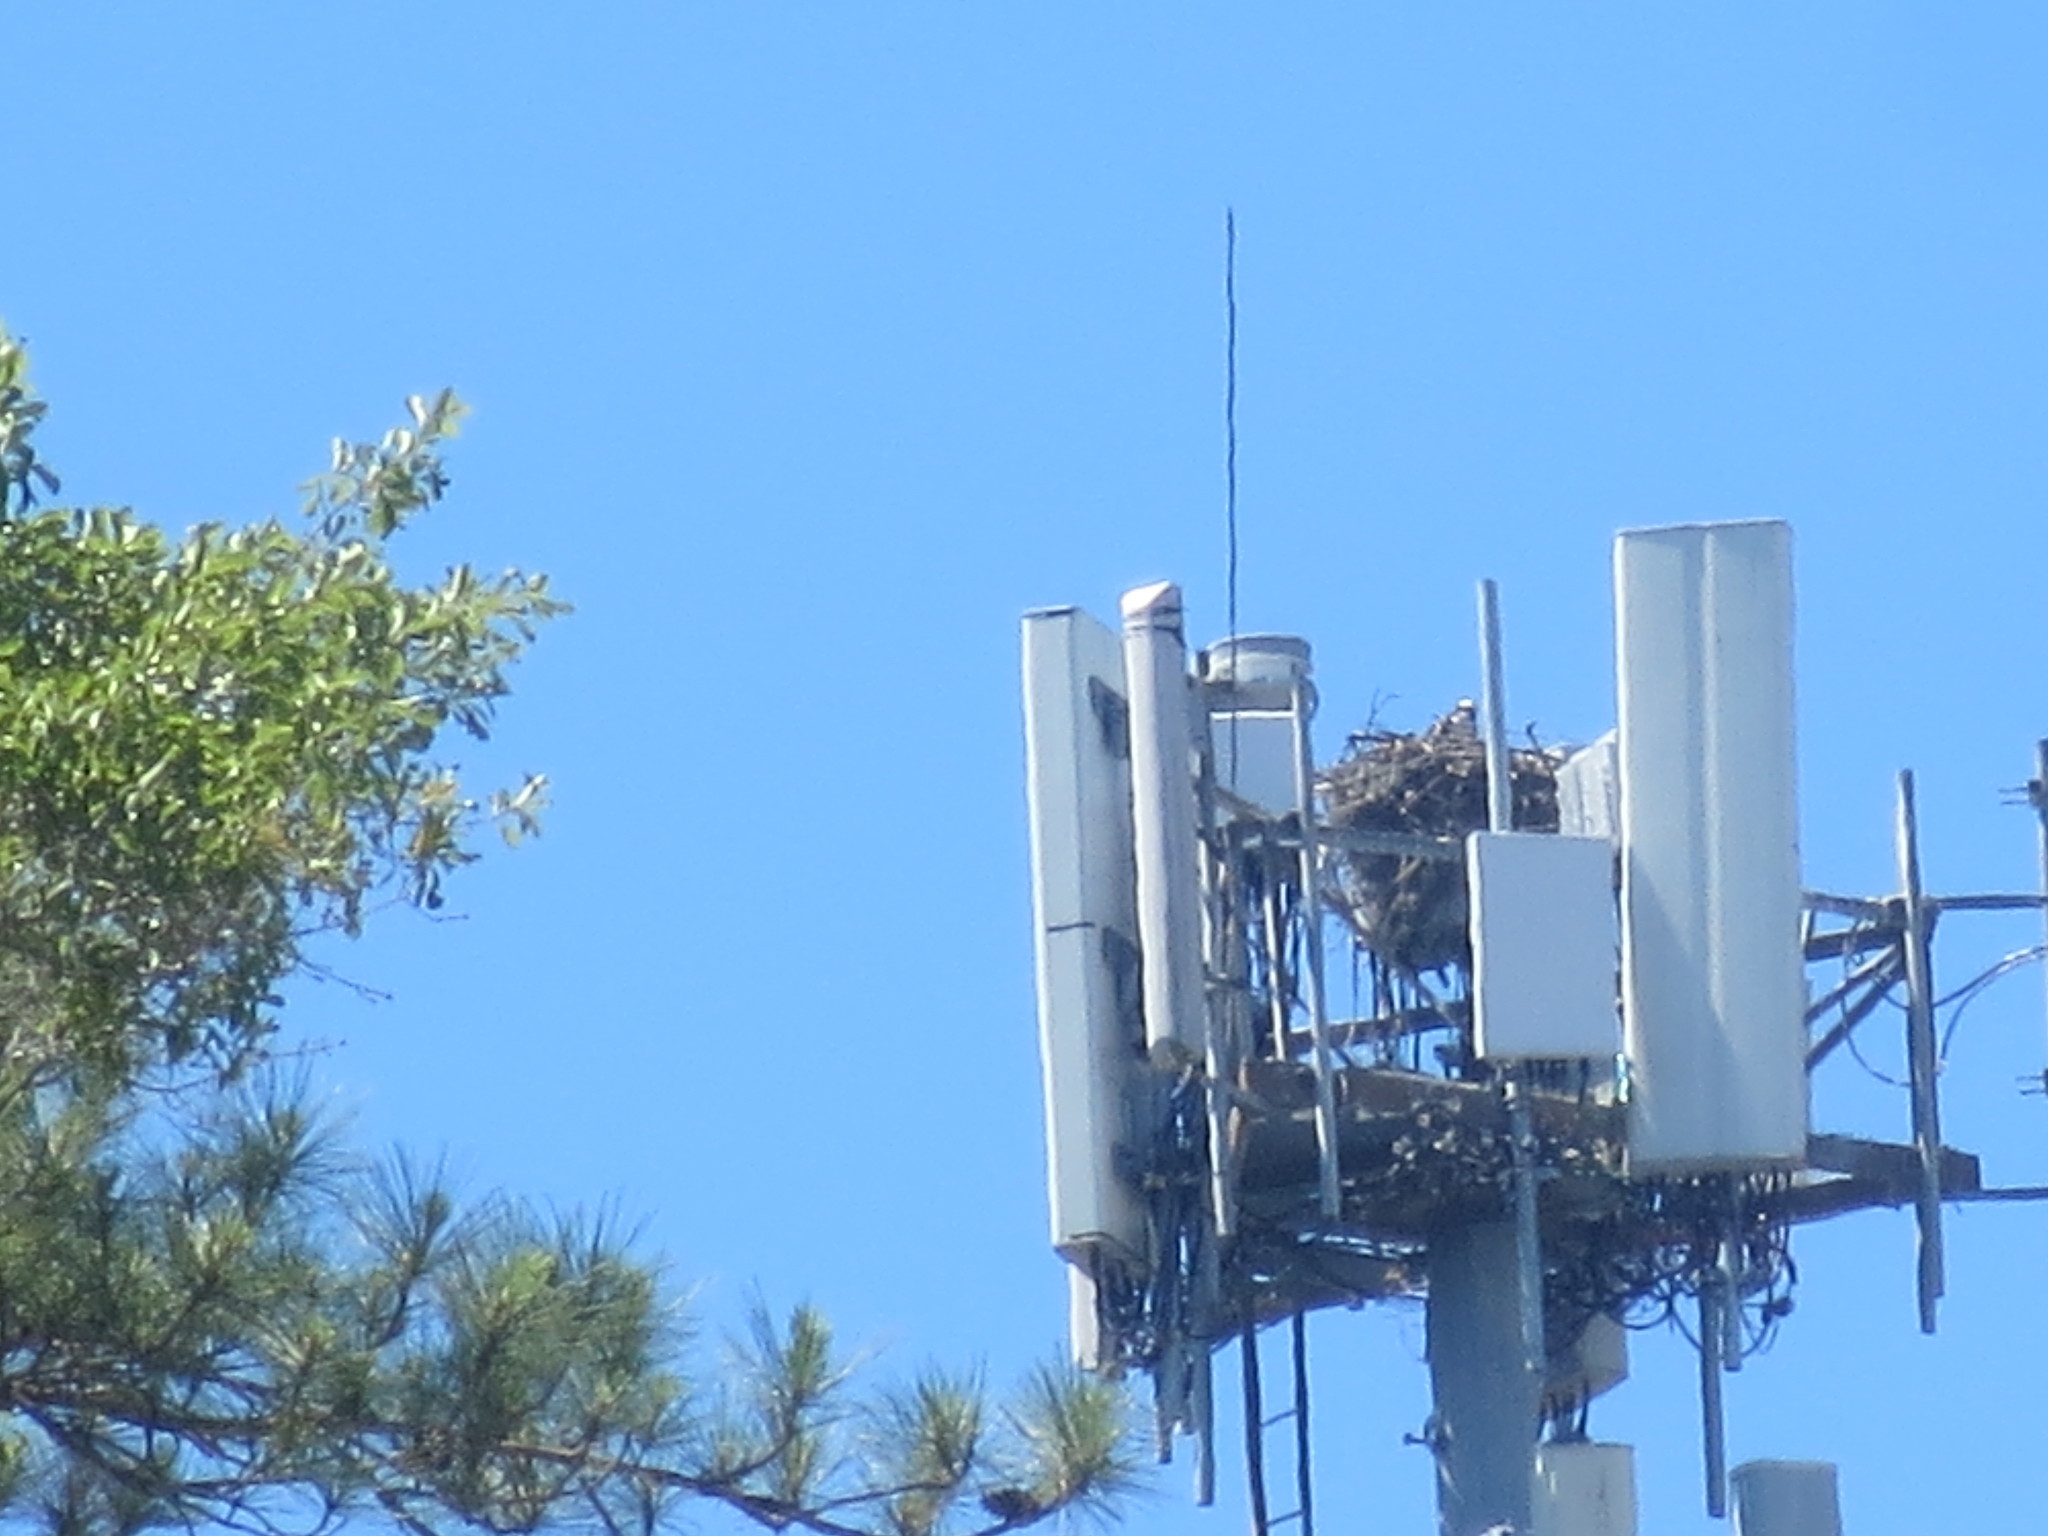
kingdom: Animalia
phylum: Chordata
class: Aves
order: Accipitriformes
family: Pandionidae
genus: Pandion
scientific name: Pandion haliaetus
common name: Osprey
